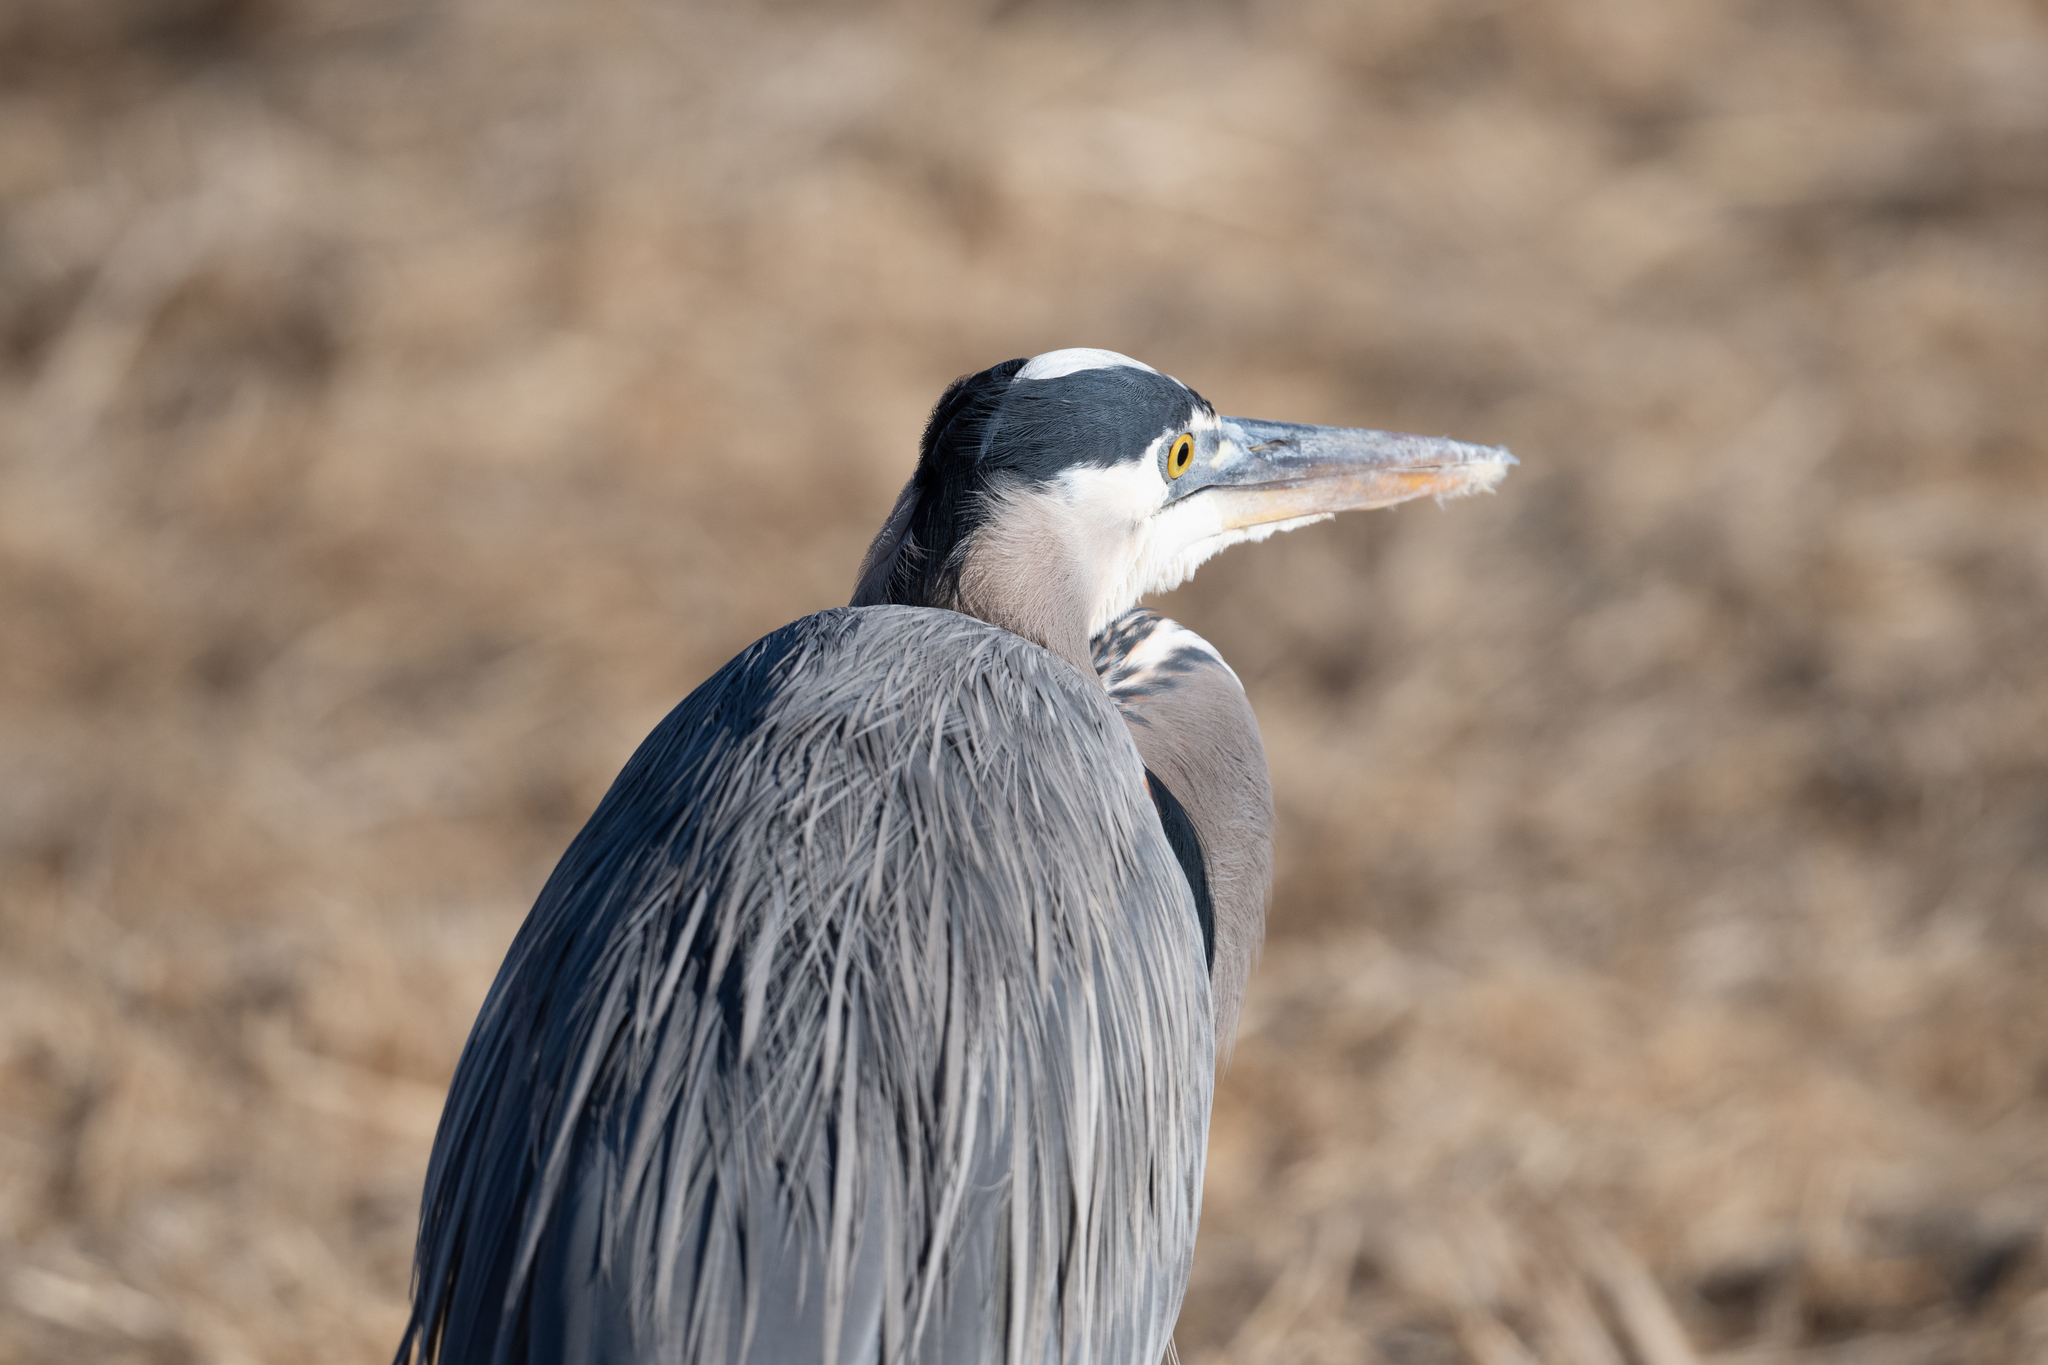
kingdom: Animalia
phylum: Chordata
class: Aves
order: Pelecaniformes
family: Ardeidae
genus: Ardea
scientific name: Ardea herodias
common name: Great blue heron
